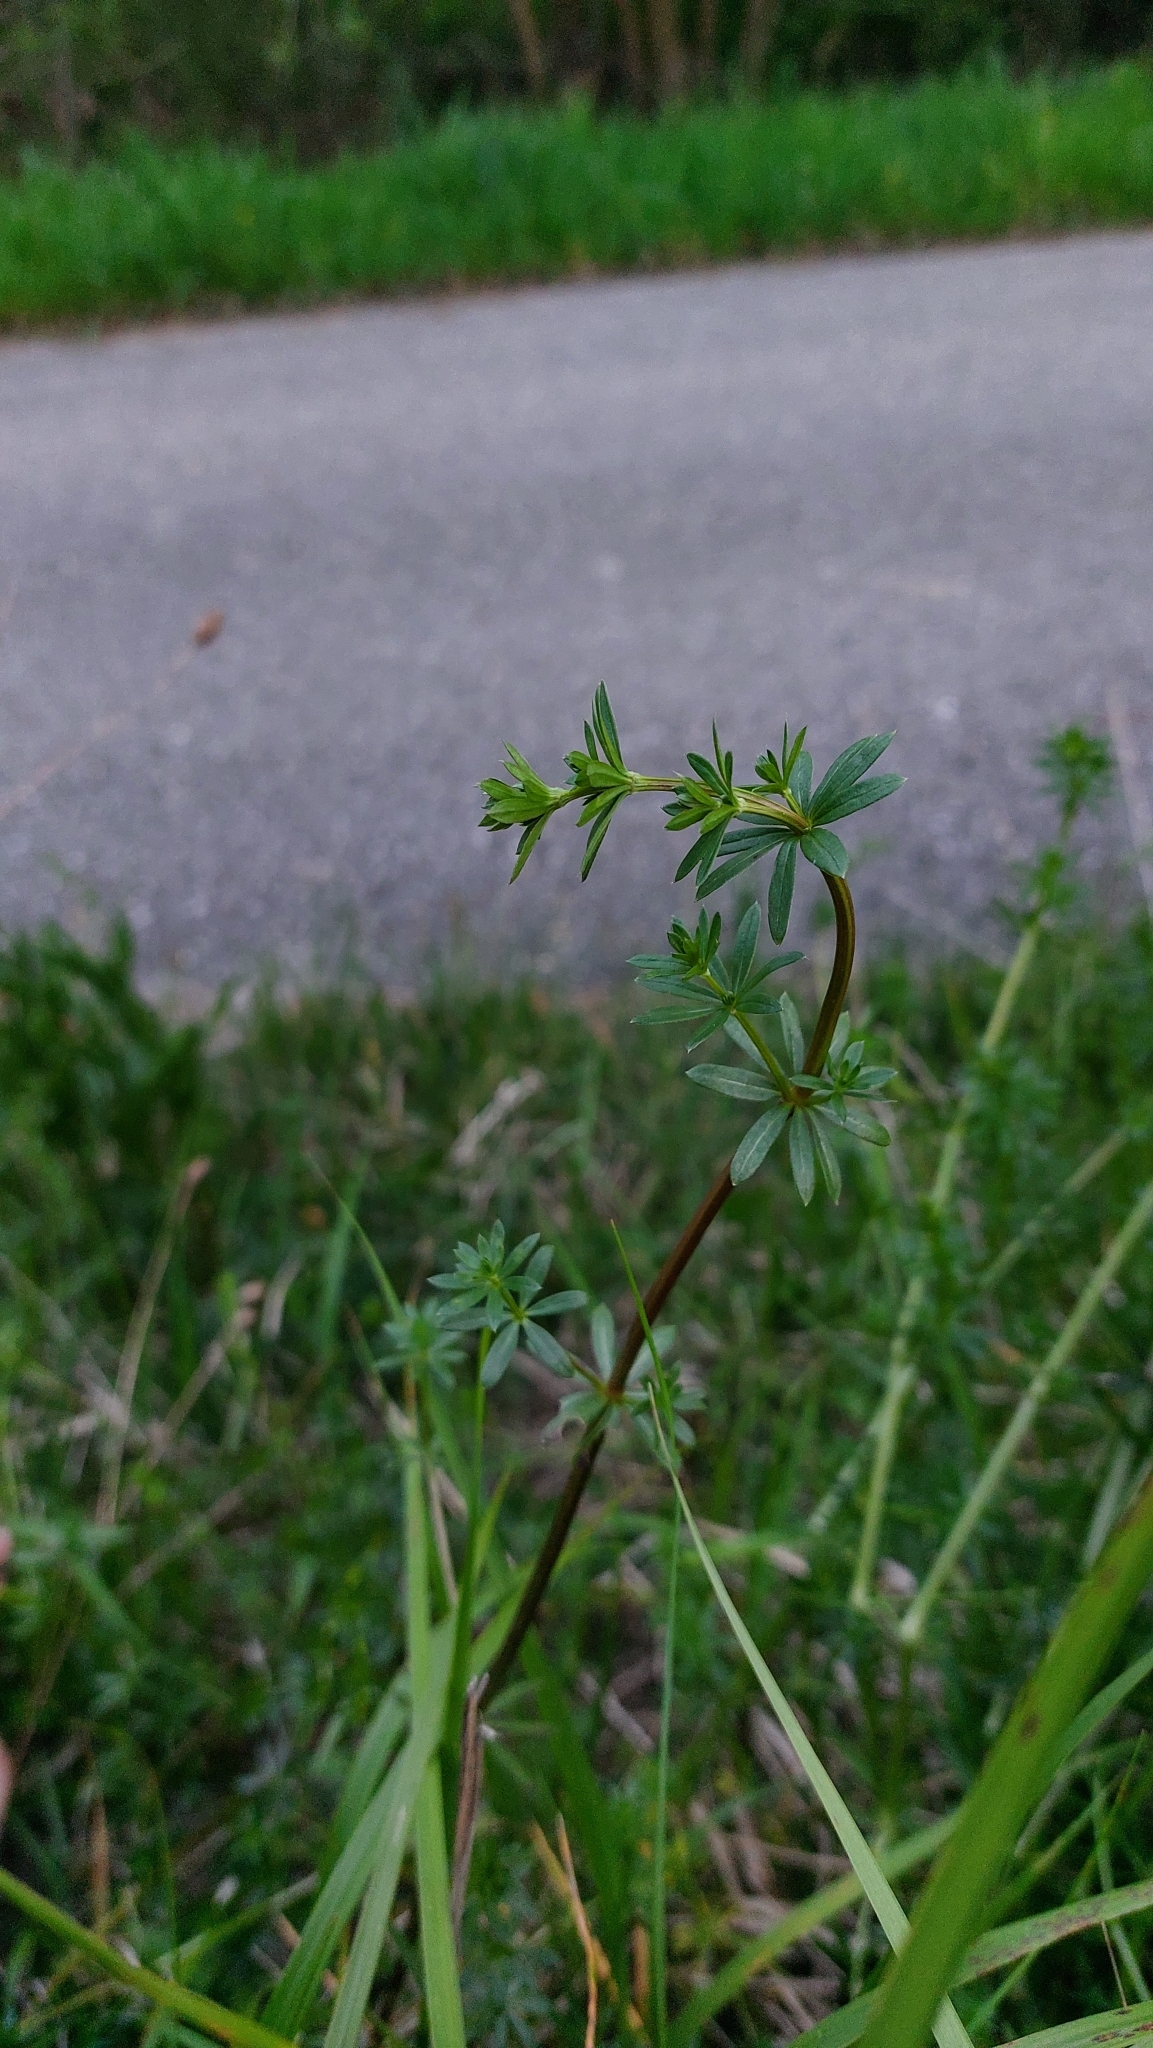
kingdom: Plantae
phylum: Tracheophyta
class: Magnoliopsida
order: Gentianales
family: Rubiaceae
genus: Galium
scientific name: Galium album
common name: White bedstraw
